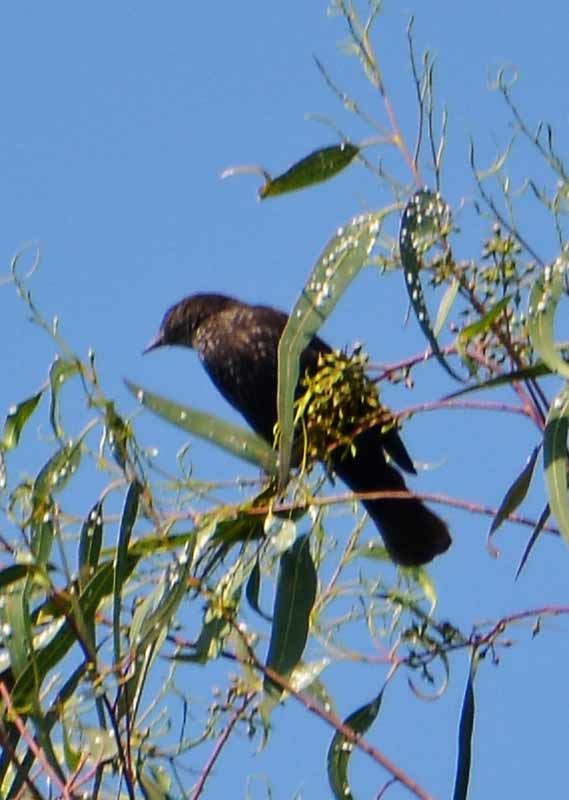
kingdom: Animalia
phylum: Chordata
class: Aves
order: Passeriformes
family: Sturnidae
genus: Sturnus
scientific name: Sturnus vulgaris
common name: Common starling
